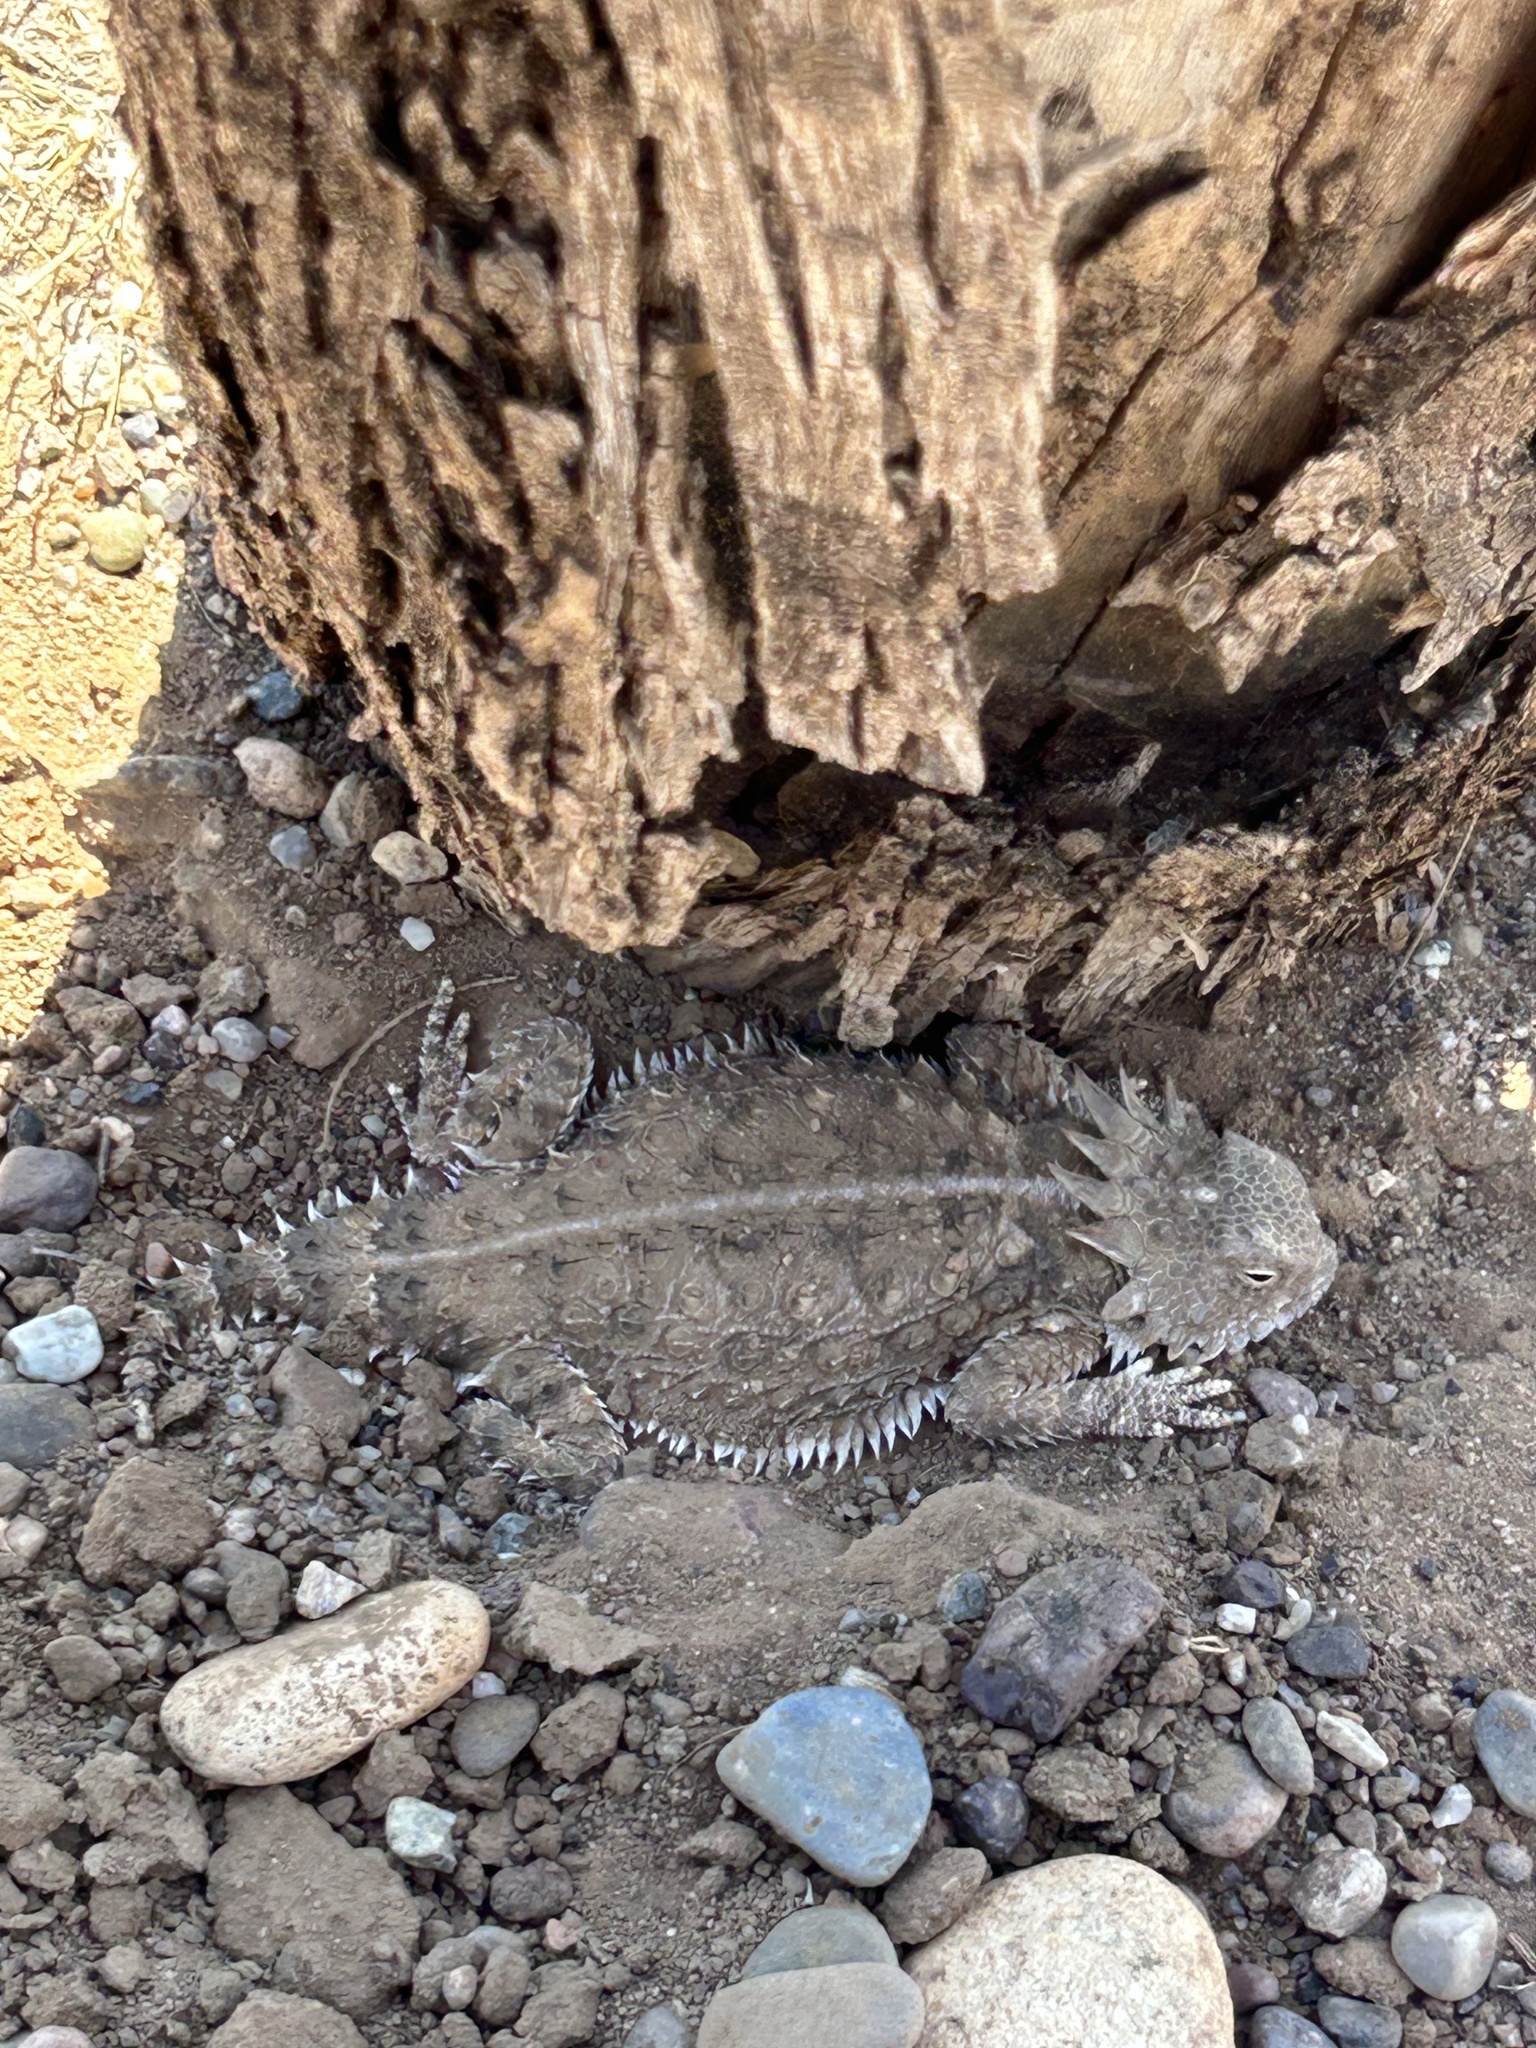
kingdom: Animalia
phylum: Chordata
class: Squamata
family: Phrynosomatidae
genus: Phrynosoma
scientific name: Phrynosoma solare
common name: Regal horned lizard
